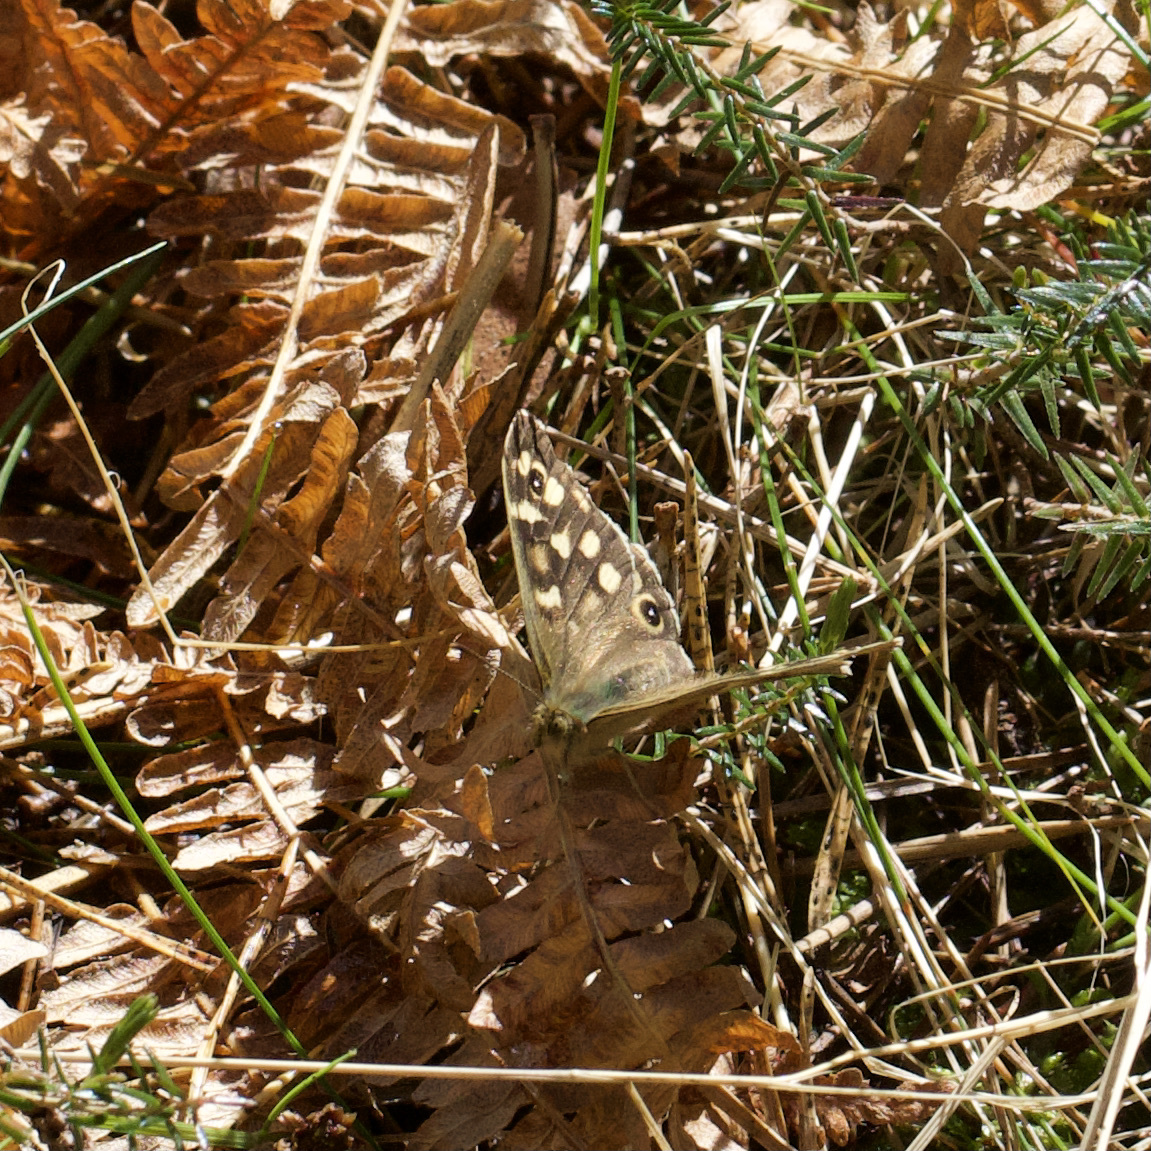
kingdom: Animalia
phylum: Arthropoda
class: Insecta
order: Lepidoptera
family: Nymphalidae
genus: Pararge
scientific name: Pararge aegeria
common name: Speckled wood
